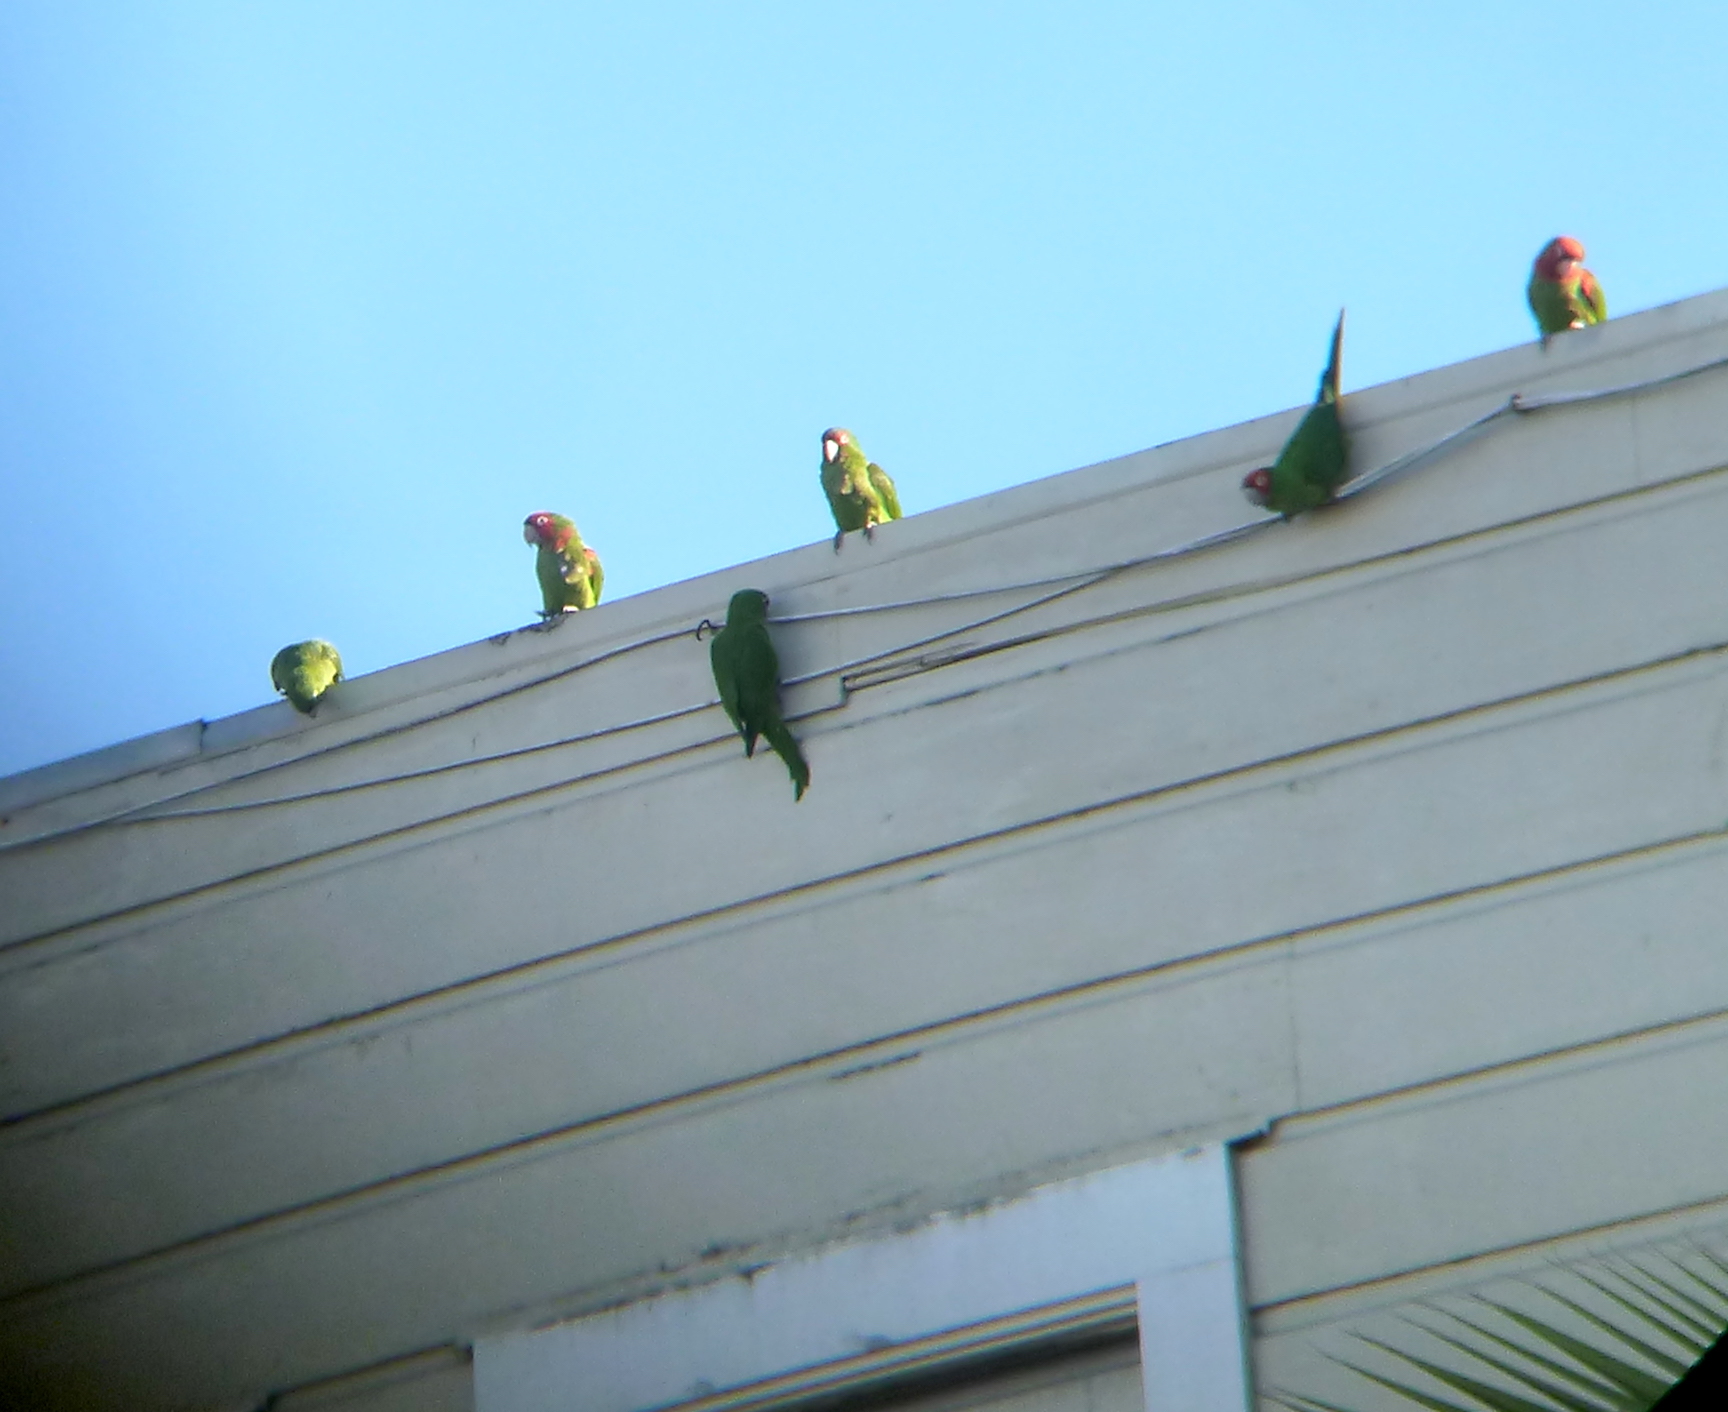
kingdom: Animalia
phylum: Chordata
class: Aves
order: Psittaciformes
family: Psittacidae
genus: Aratinga
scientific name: Aratinga erythrogenys
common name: Red-masked parakeet
